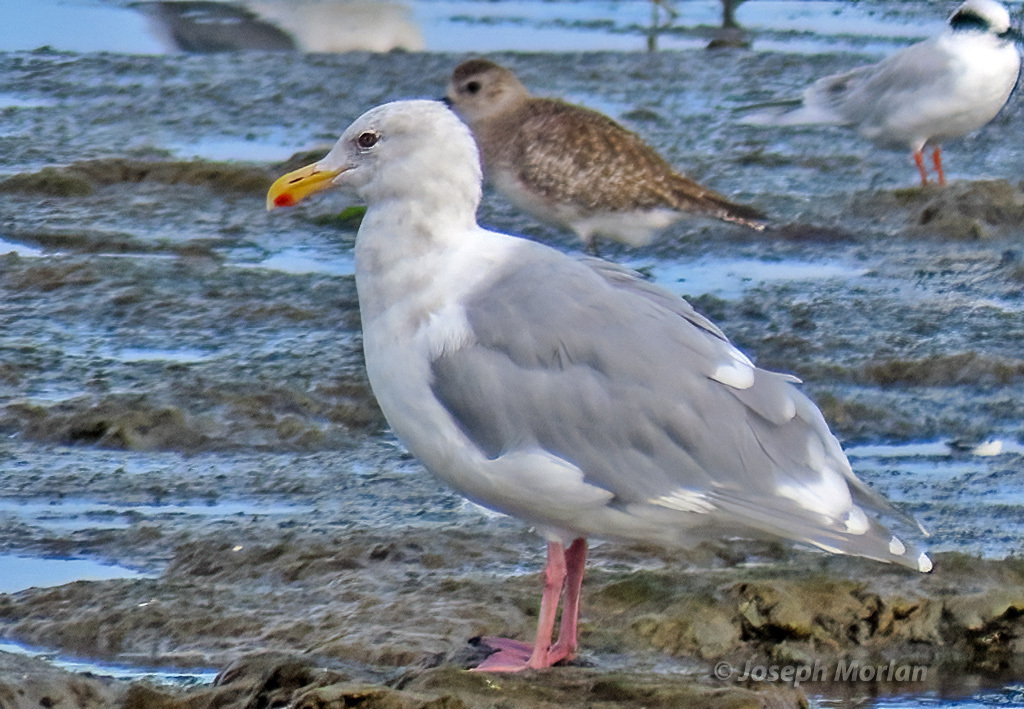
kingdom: Animalia
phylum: Chordata
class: Aves
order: Charadriiformes
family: Laridae
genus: Larus
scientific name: Larus glaucescens
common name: Glaucous-winged gull
